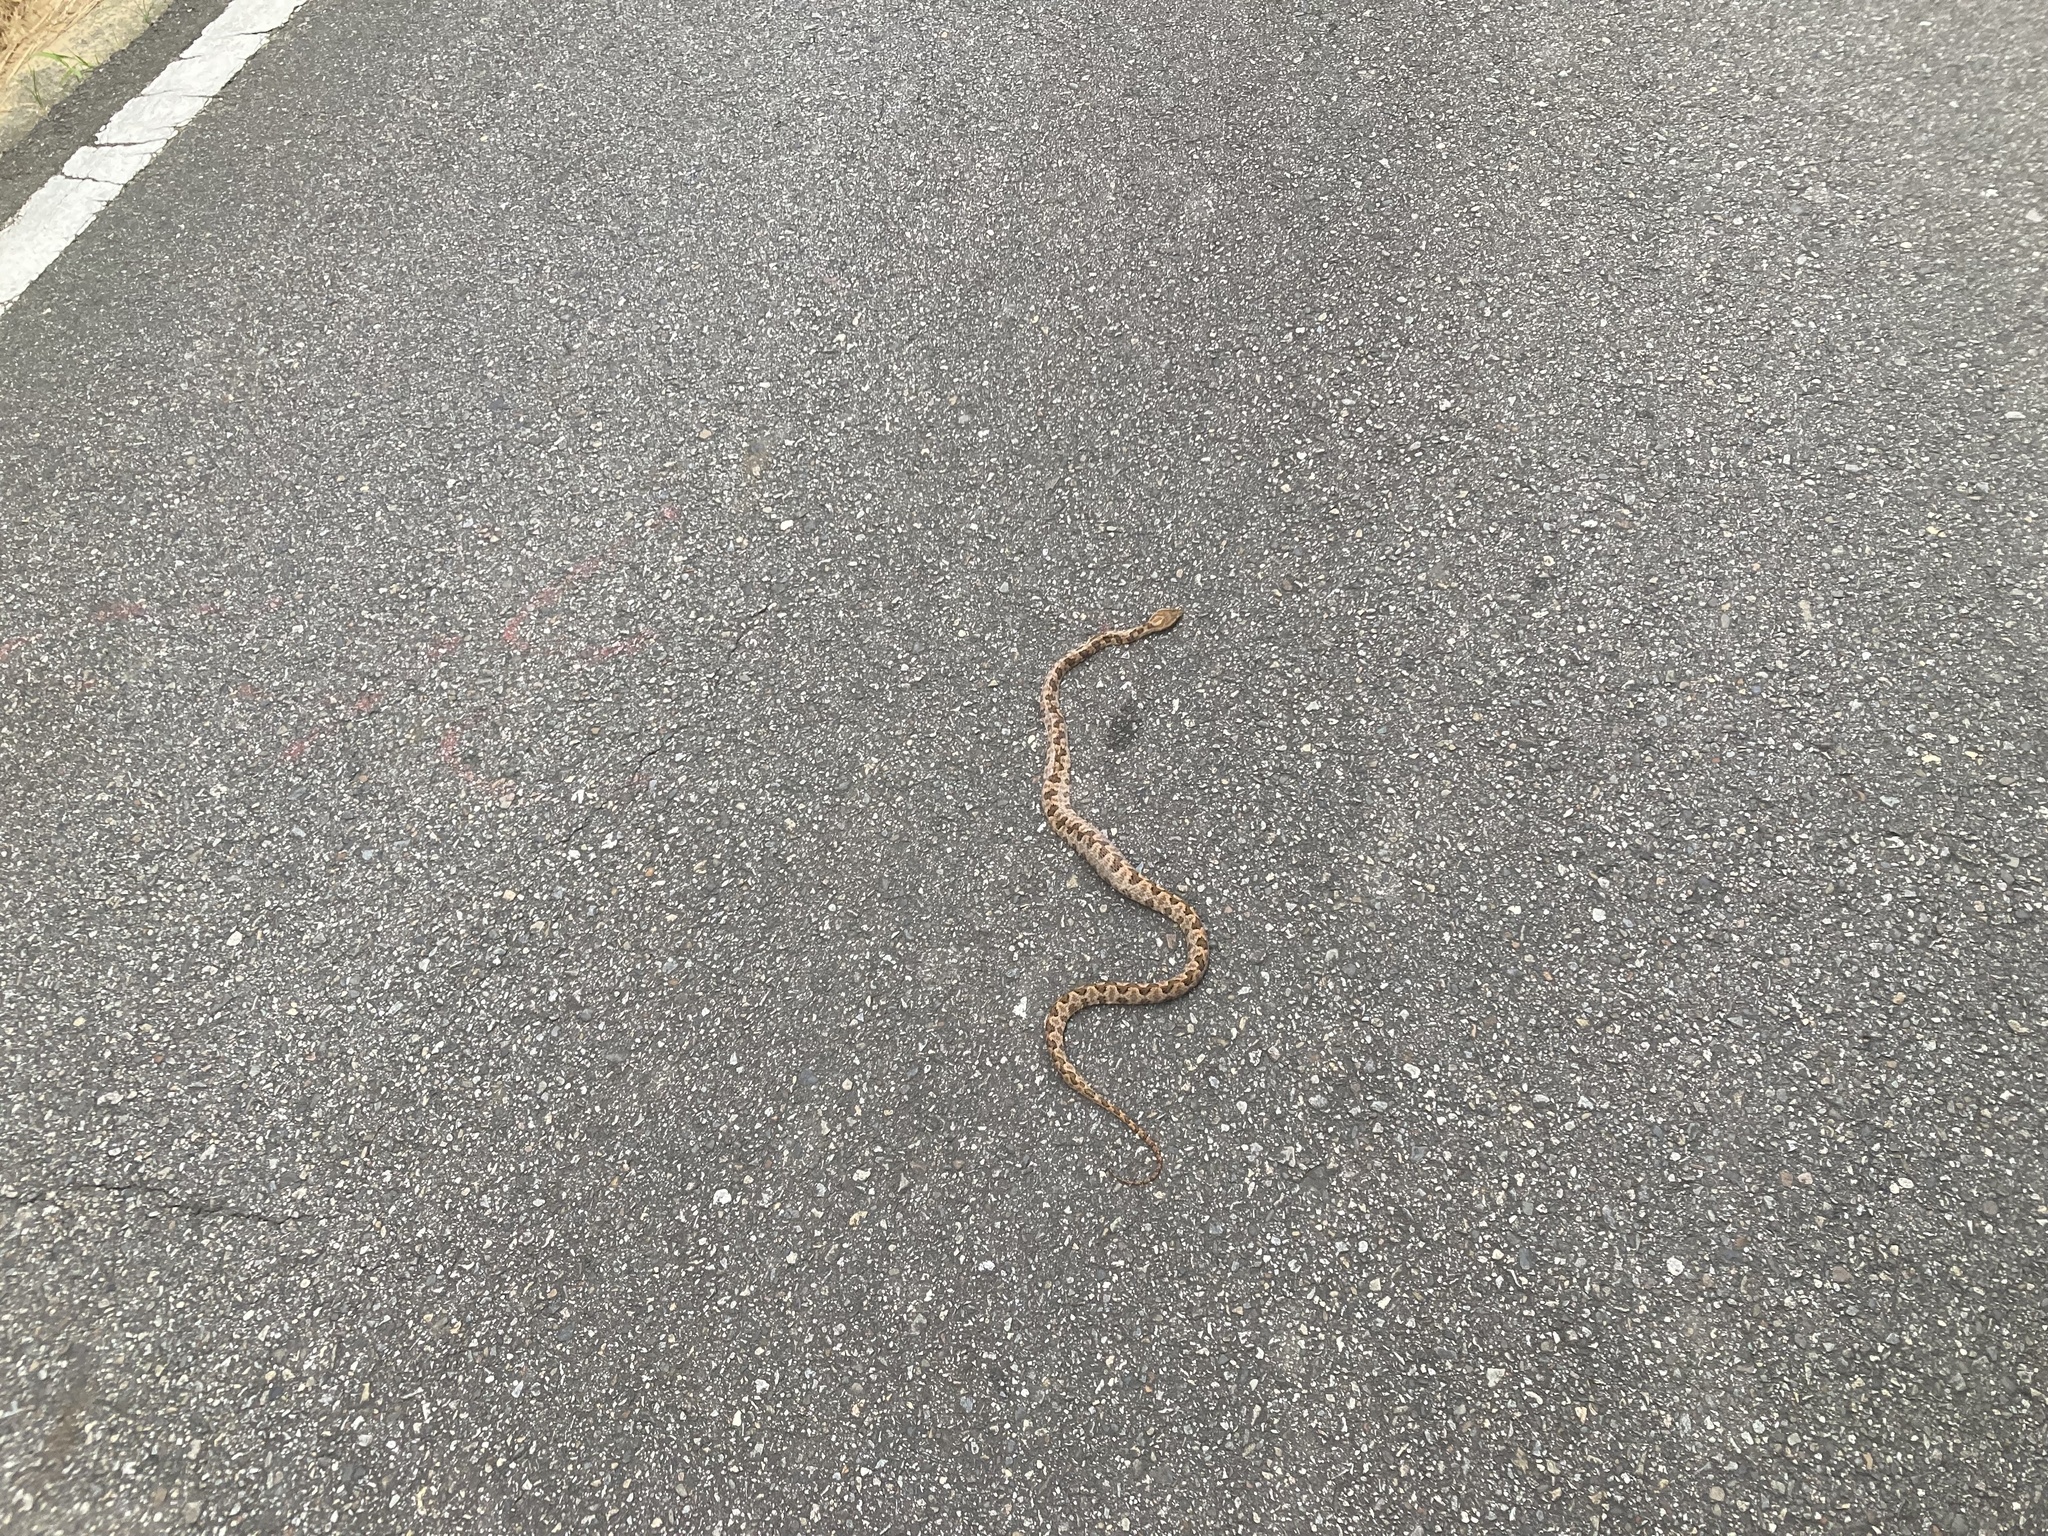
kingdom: Animalia
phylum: Chordata
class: Squamata
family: Viperidae
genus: Protobothrops
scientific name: Protobothrops mucrosquamatus
